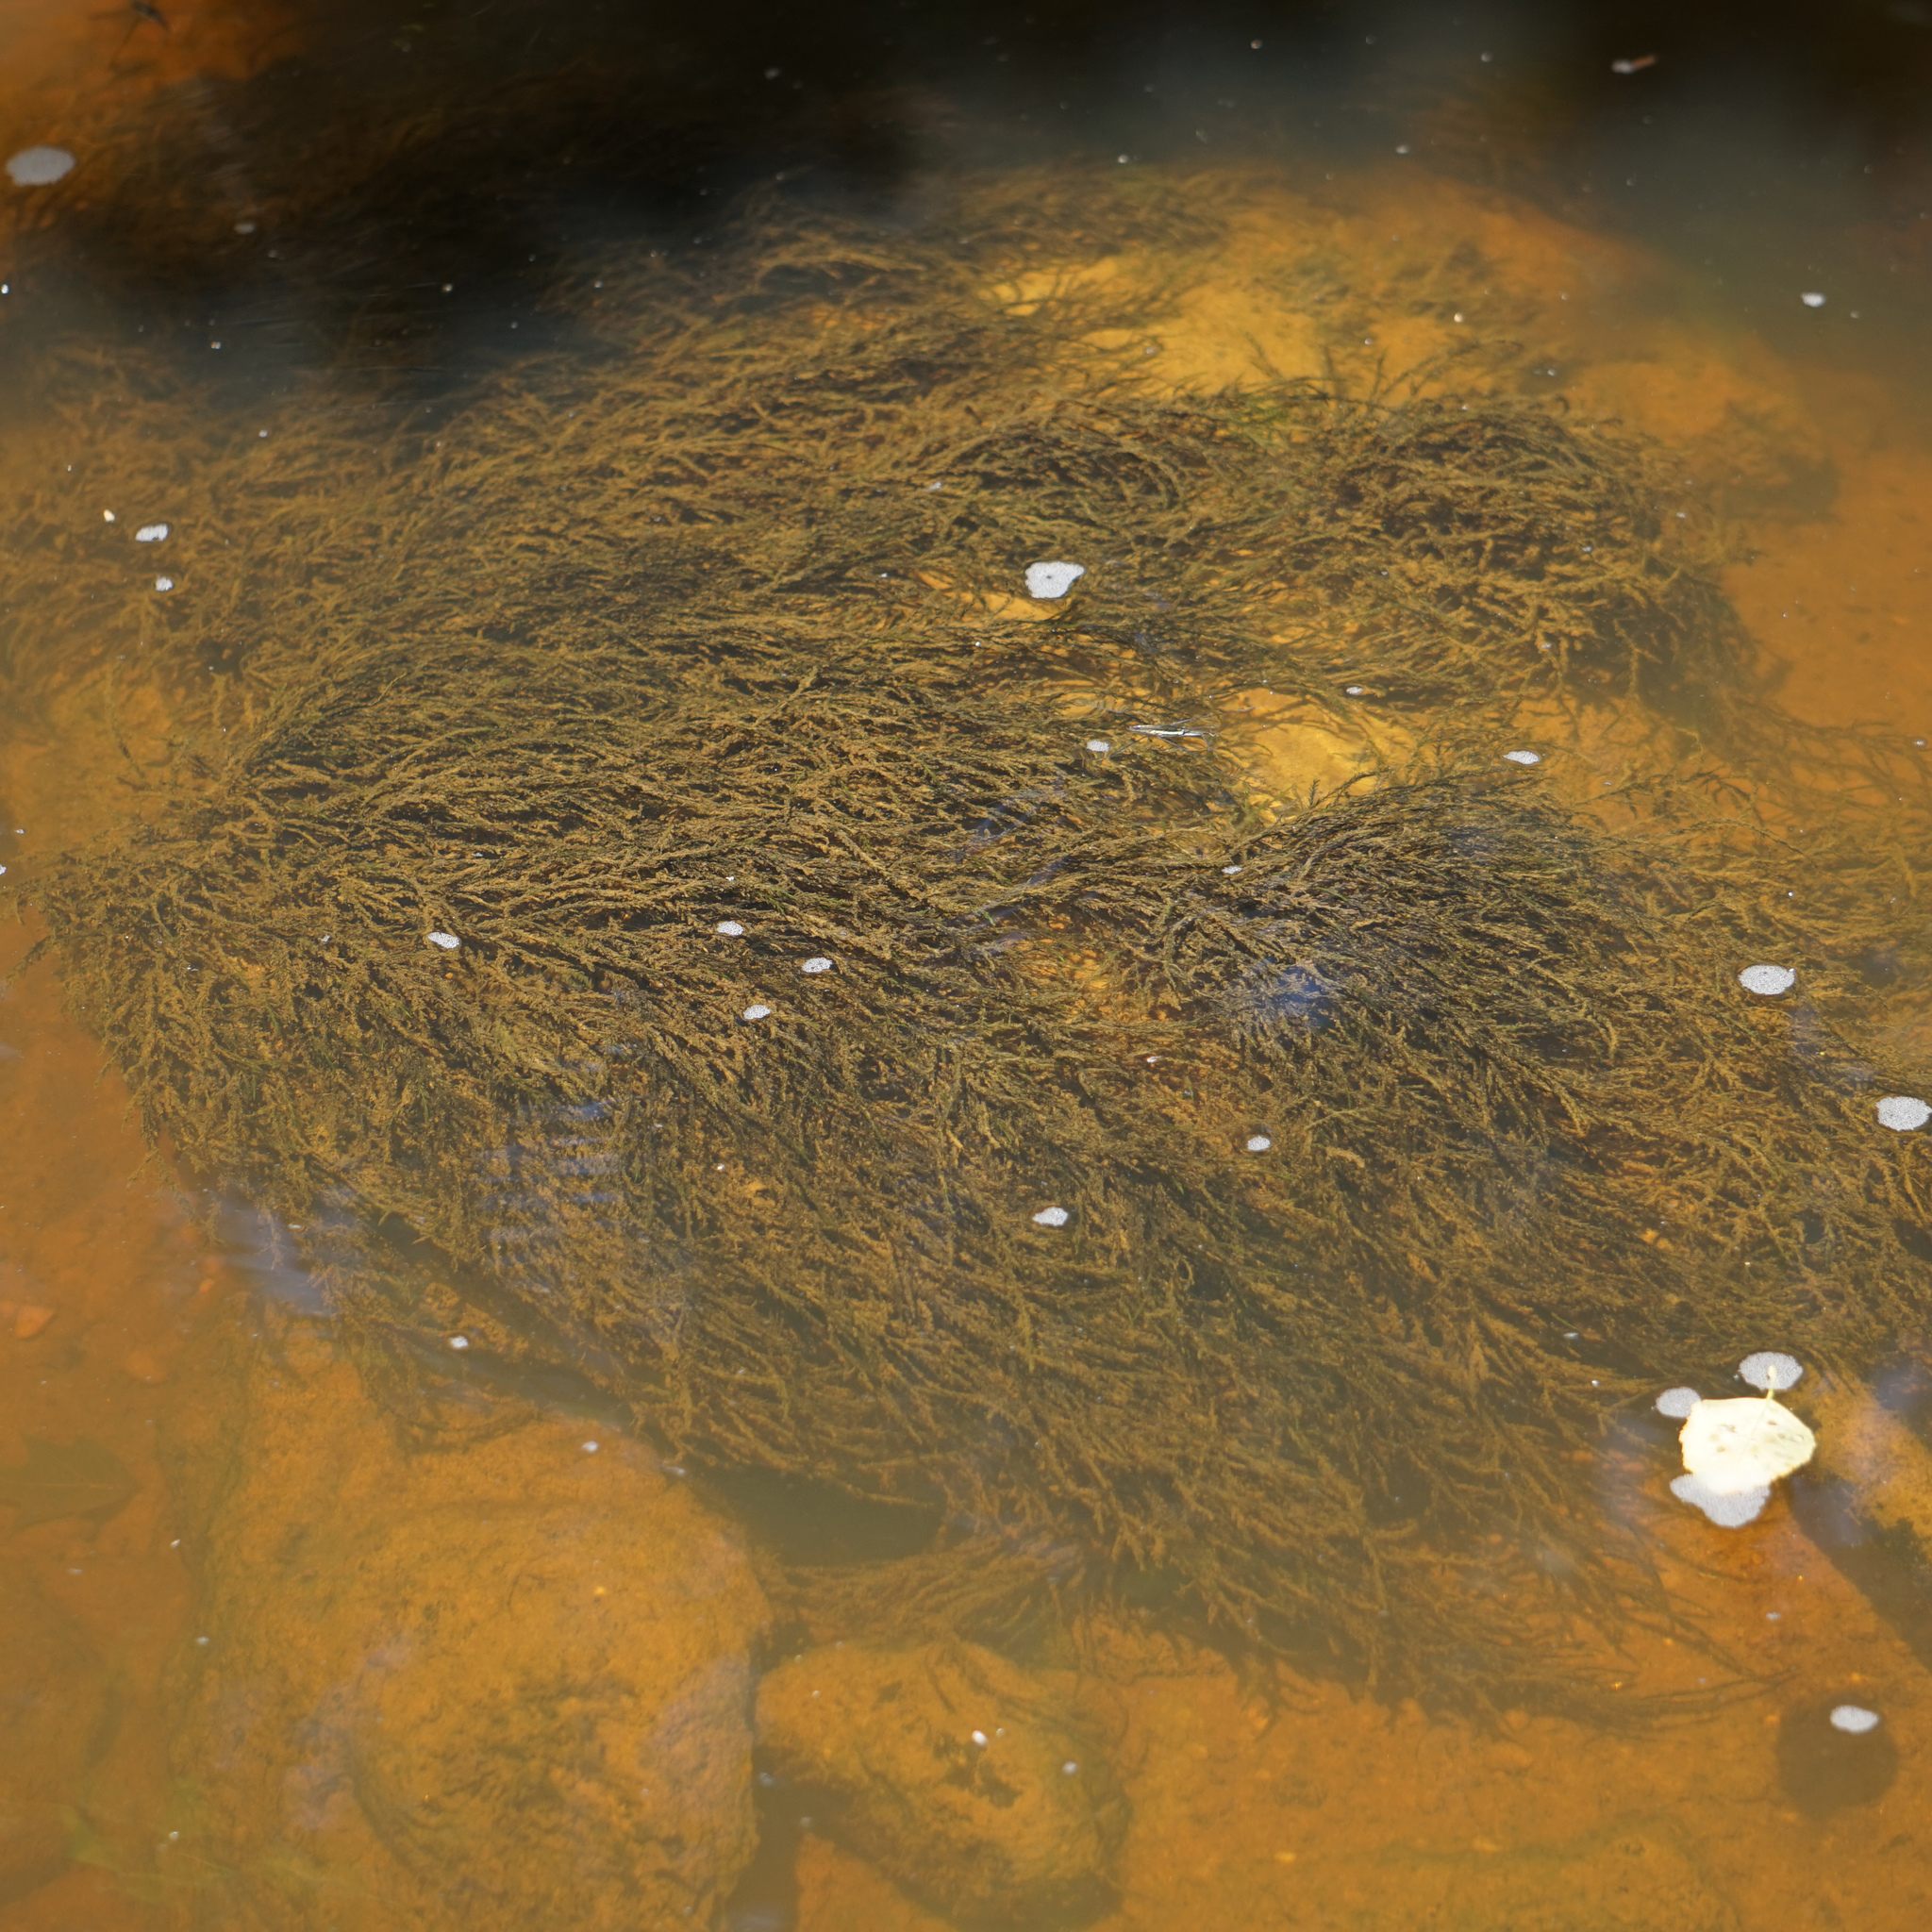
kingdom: Plantae
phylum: Bryophyta
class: Bryopsida
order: Hypnales
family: Fontinalaceae
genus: Fontinalis
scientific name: Fontinalis novae-angliae
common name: New england water moss
